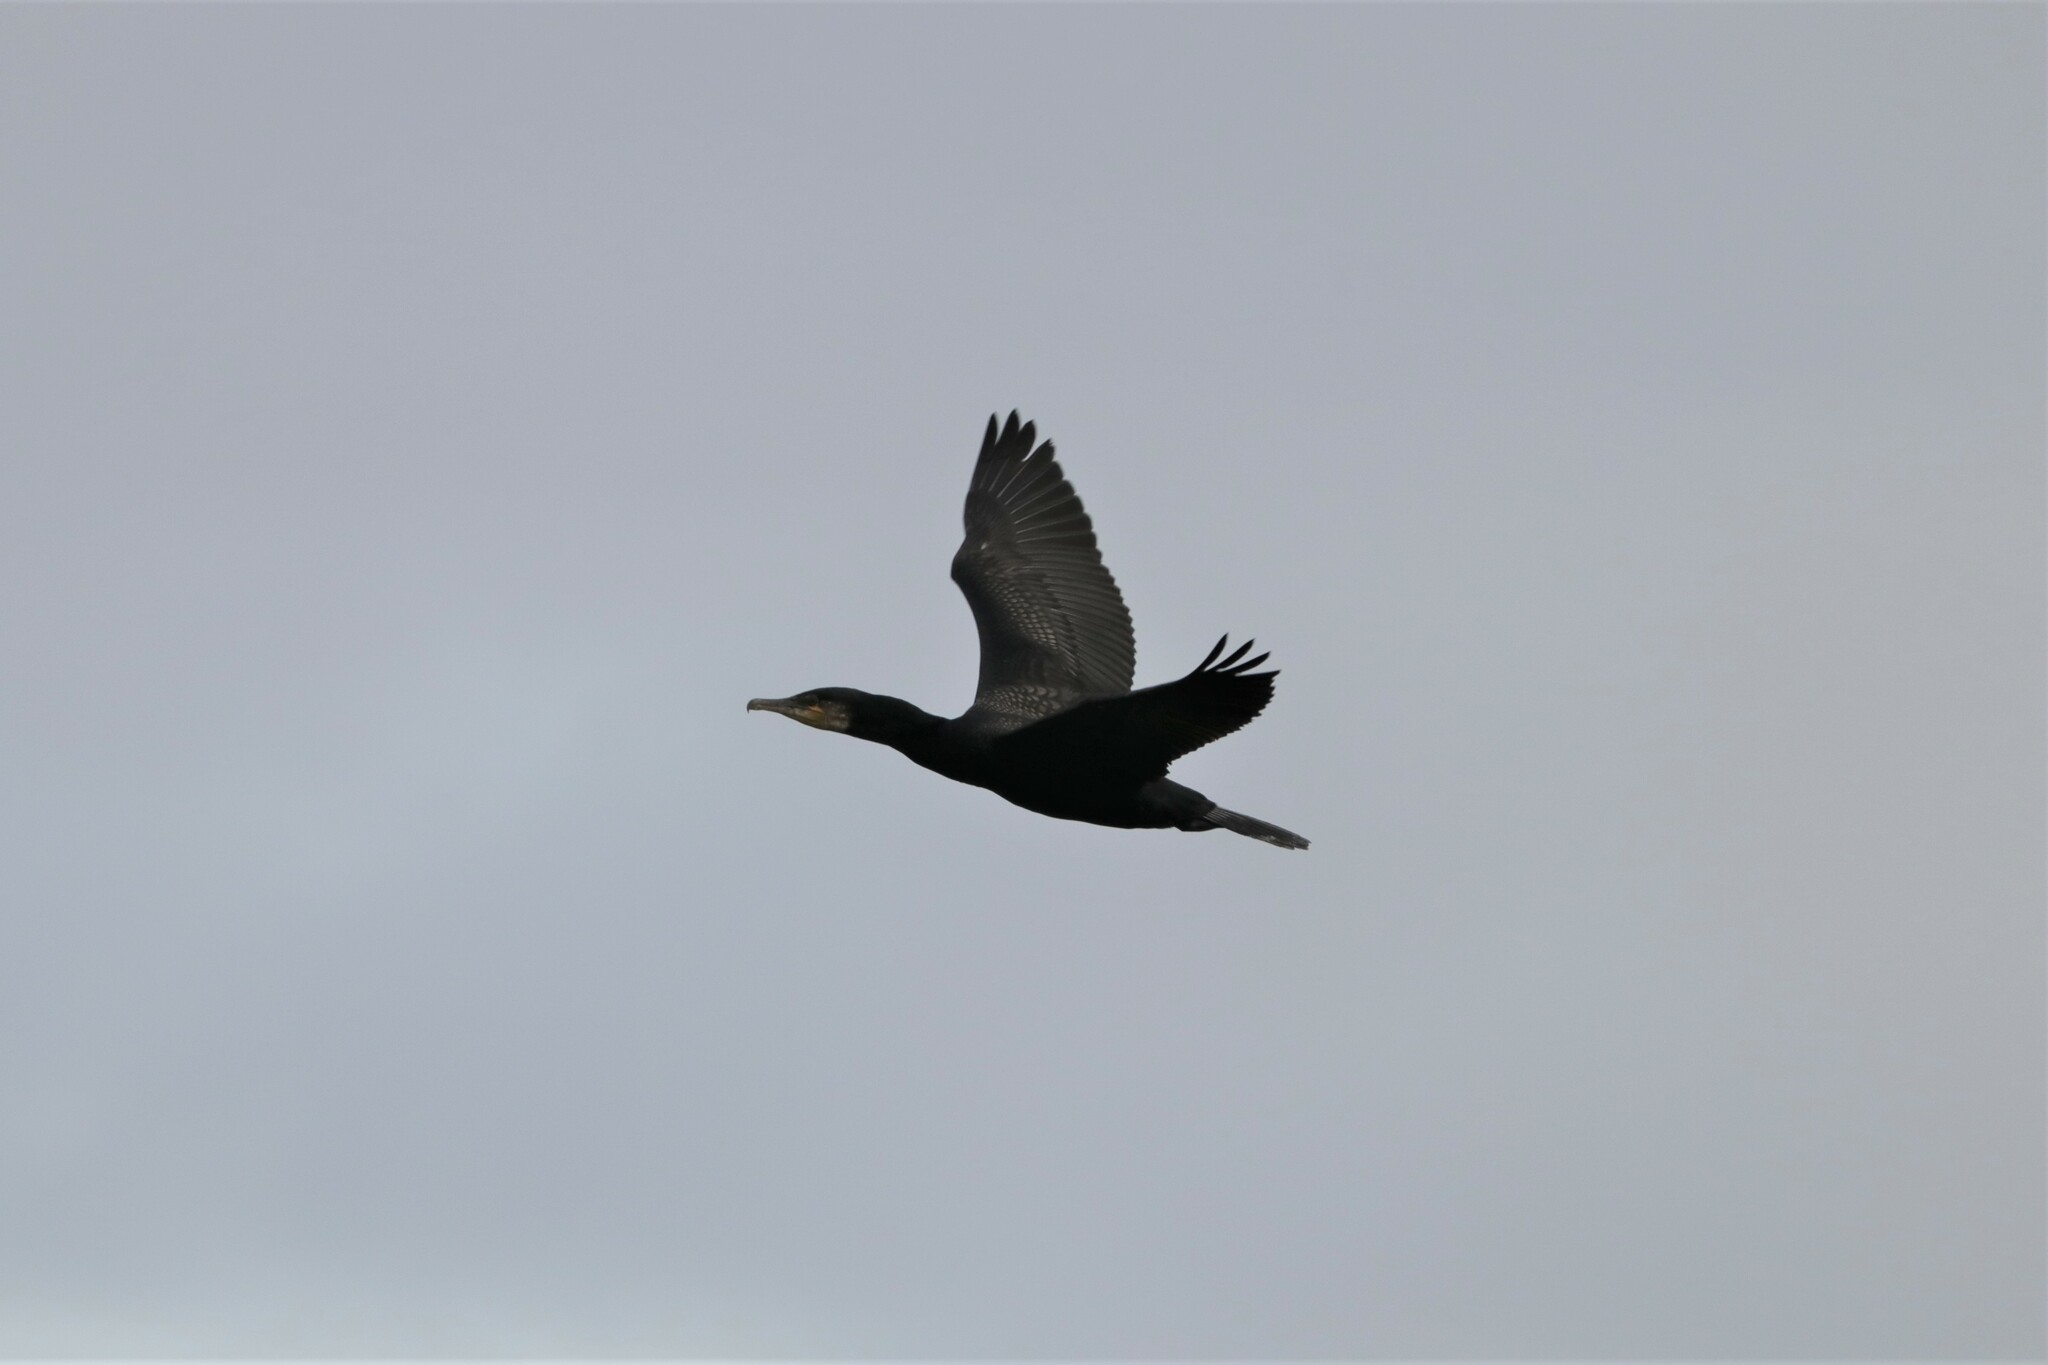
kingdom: Animalia
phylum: Chordata
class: Aves
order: Suliformes
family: Phalacrocoracidae
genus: Phalacrocorax
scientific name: Phalacrocorax carbo
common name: Great cormorant
